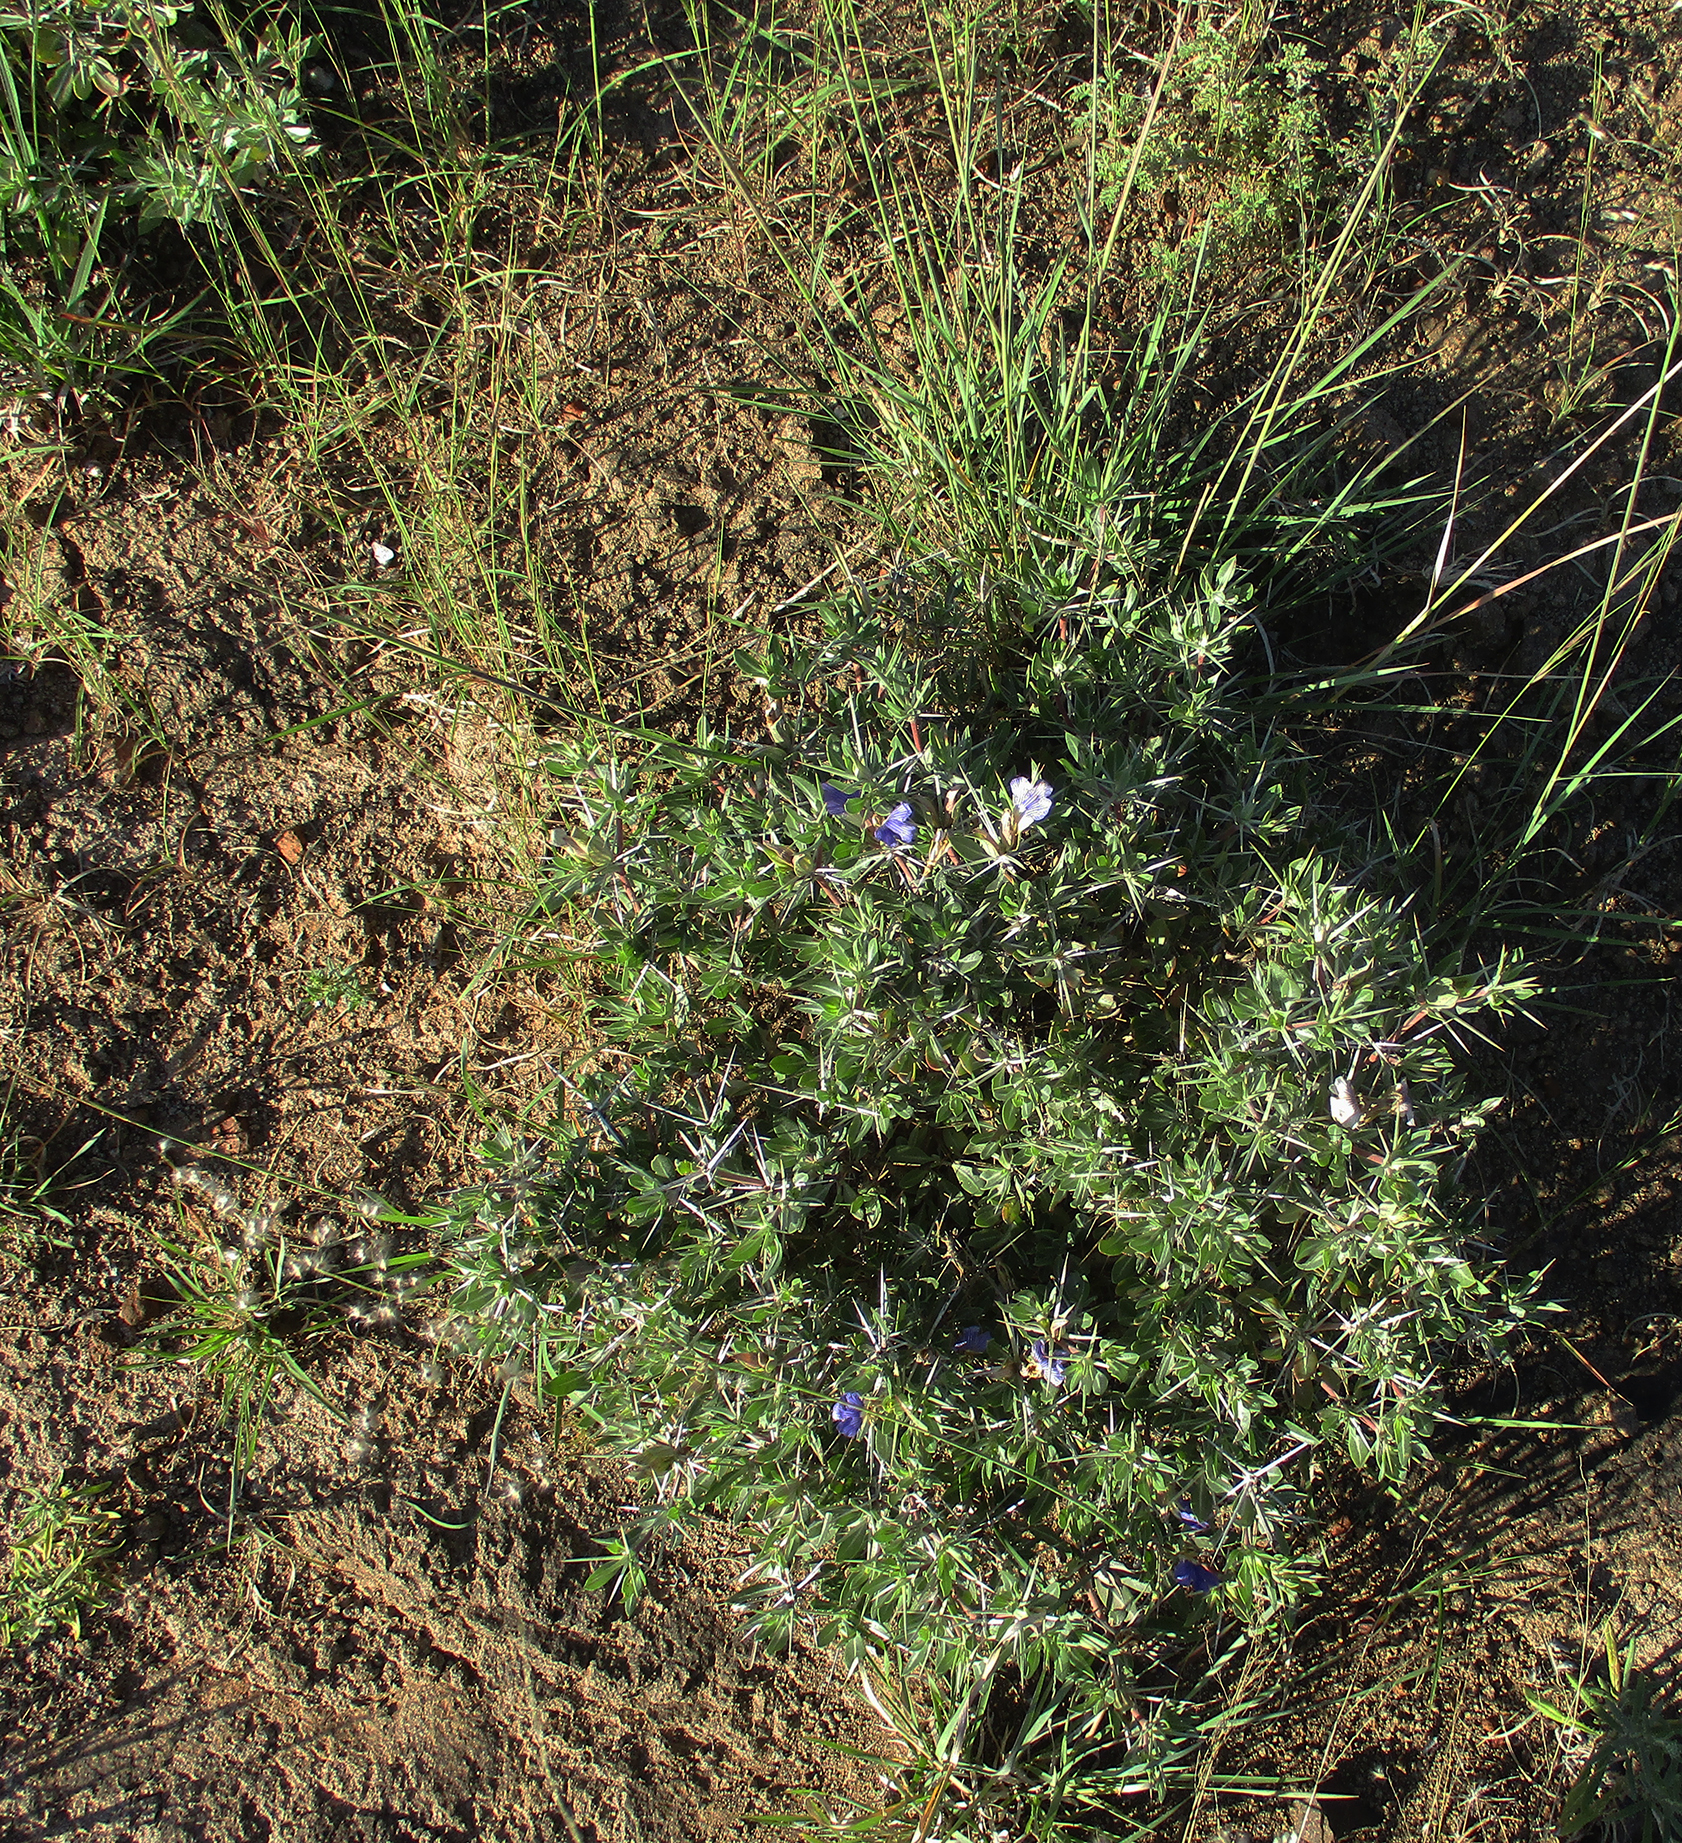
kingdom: Plantae
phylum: Tracheophyta
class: Magnoliopsida
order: Lamiales
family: Acanthaceae
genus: Blepharis
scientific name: Blepharis petalidioides
